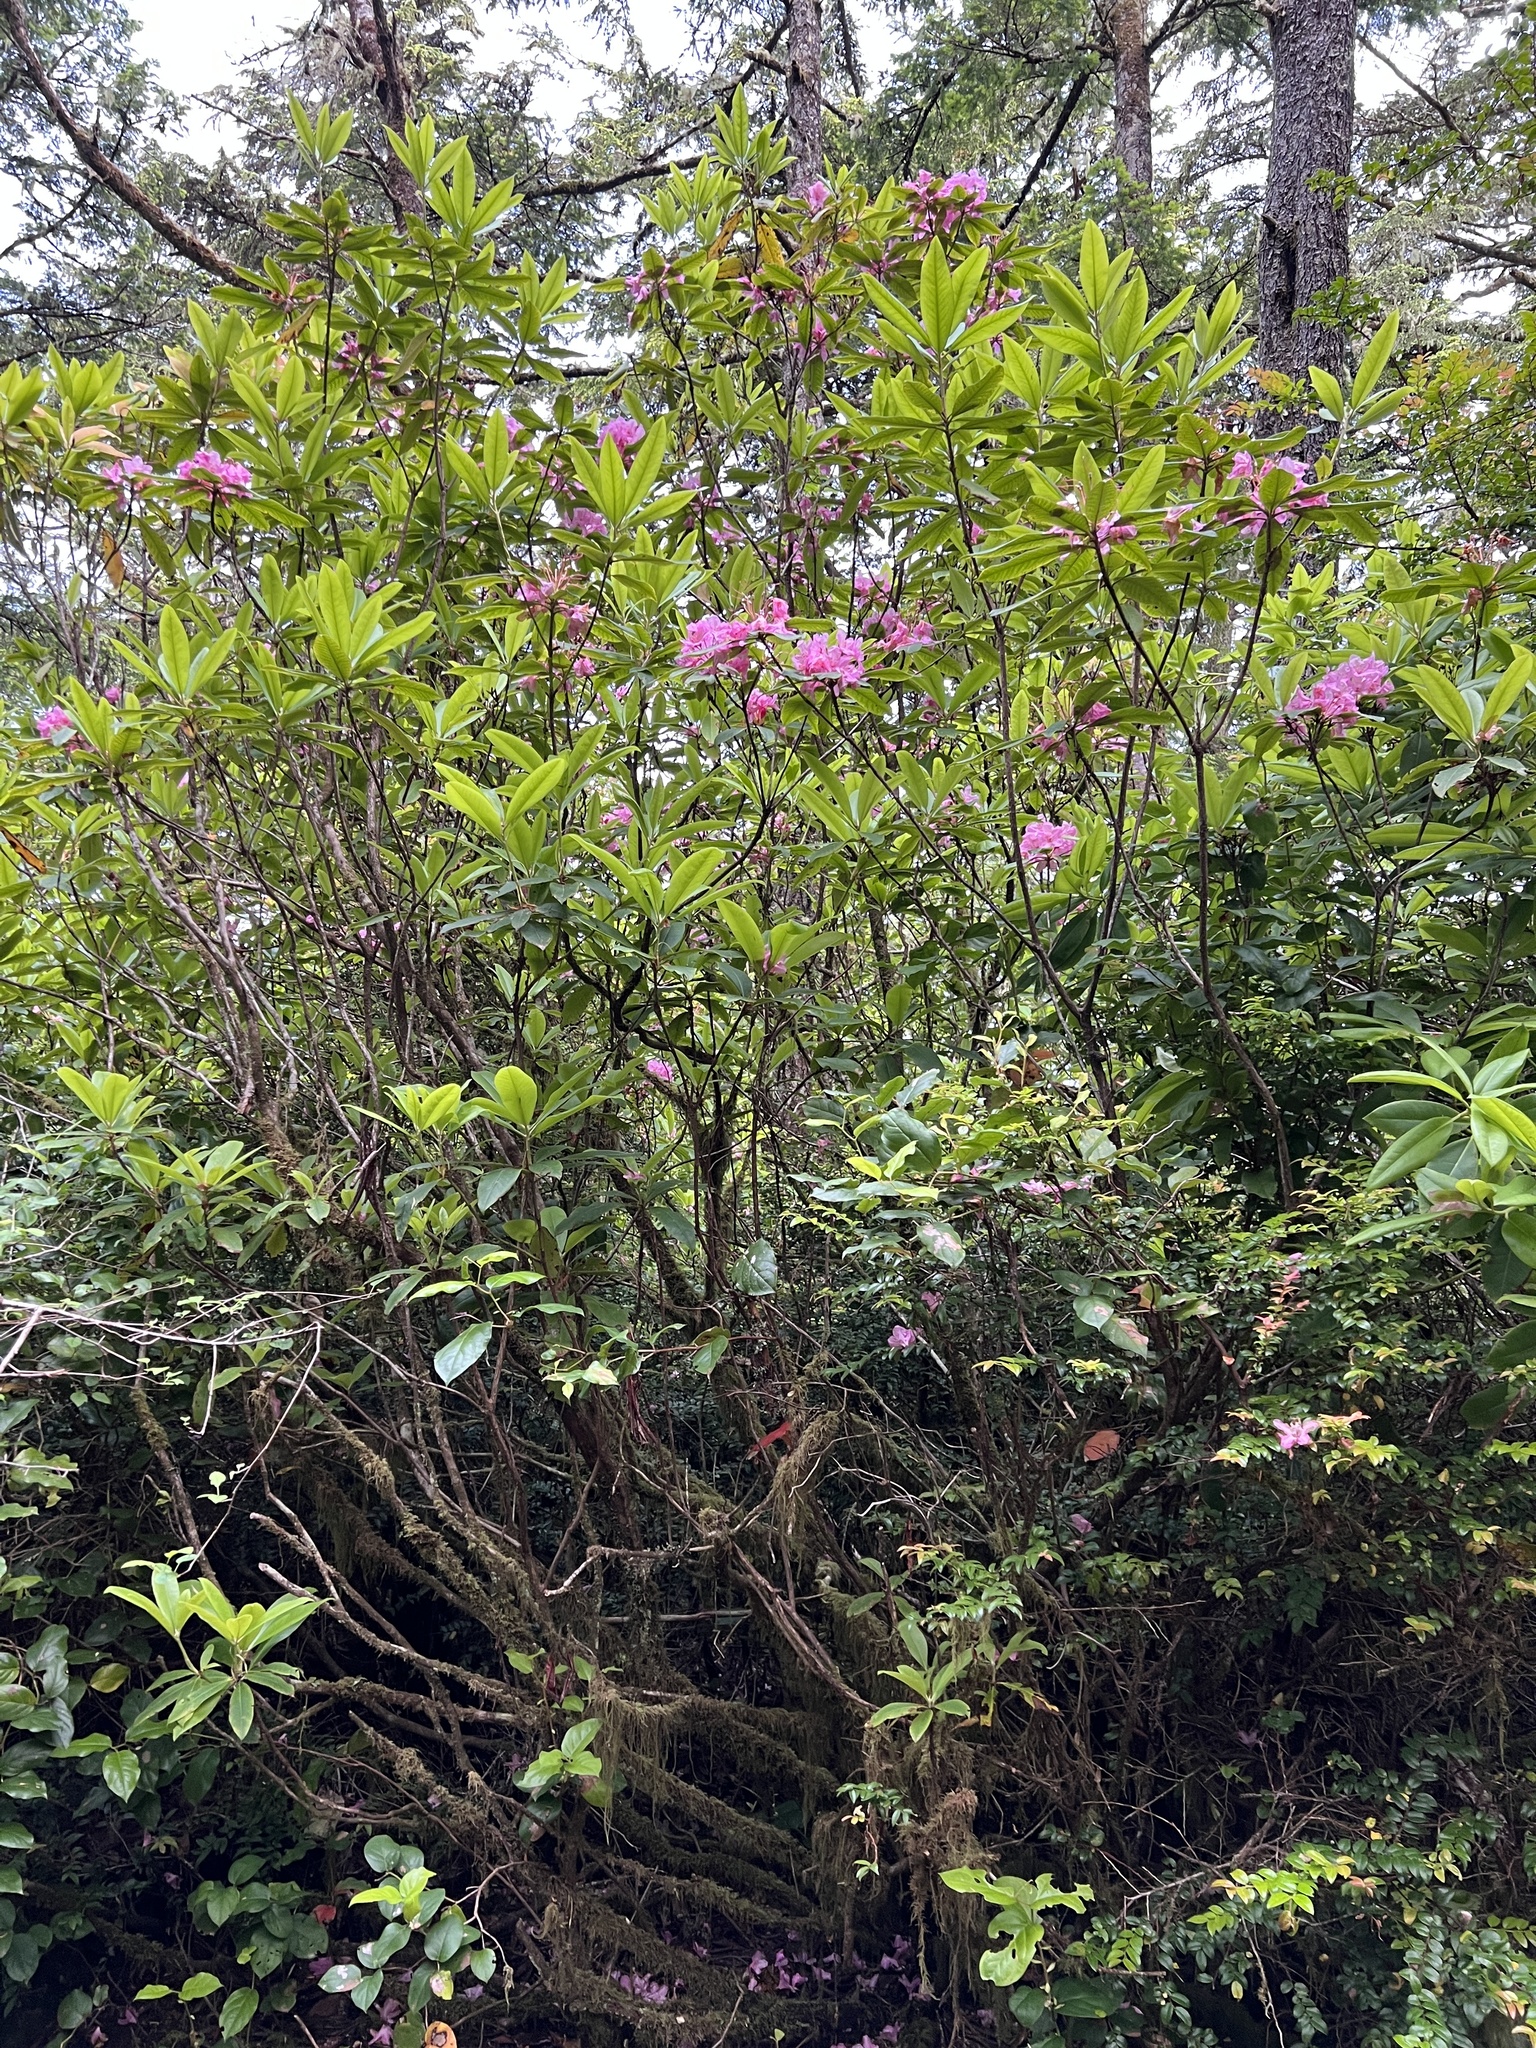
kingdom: Plantae
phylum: Tracheophyta
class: Magnoliopsida
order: Ericales
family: Ericaceae
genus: Rhododendron
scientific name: Rhododendron macrophyllum
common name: California rose bay
